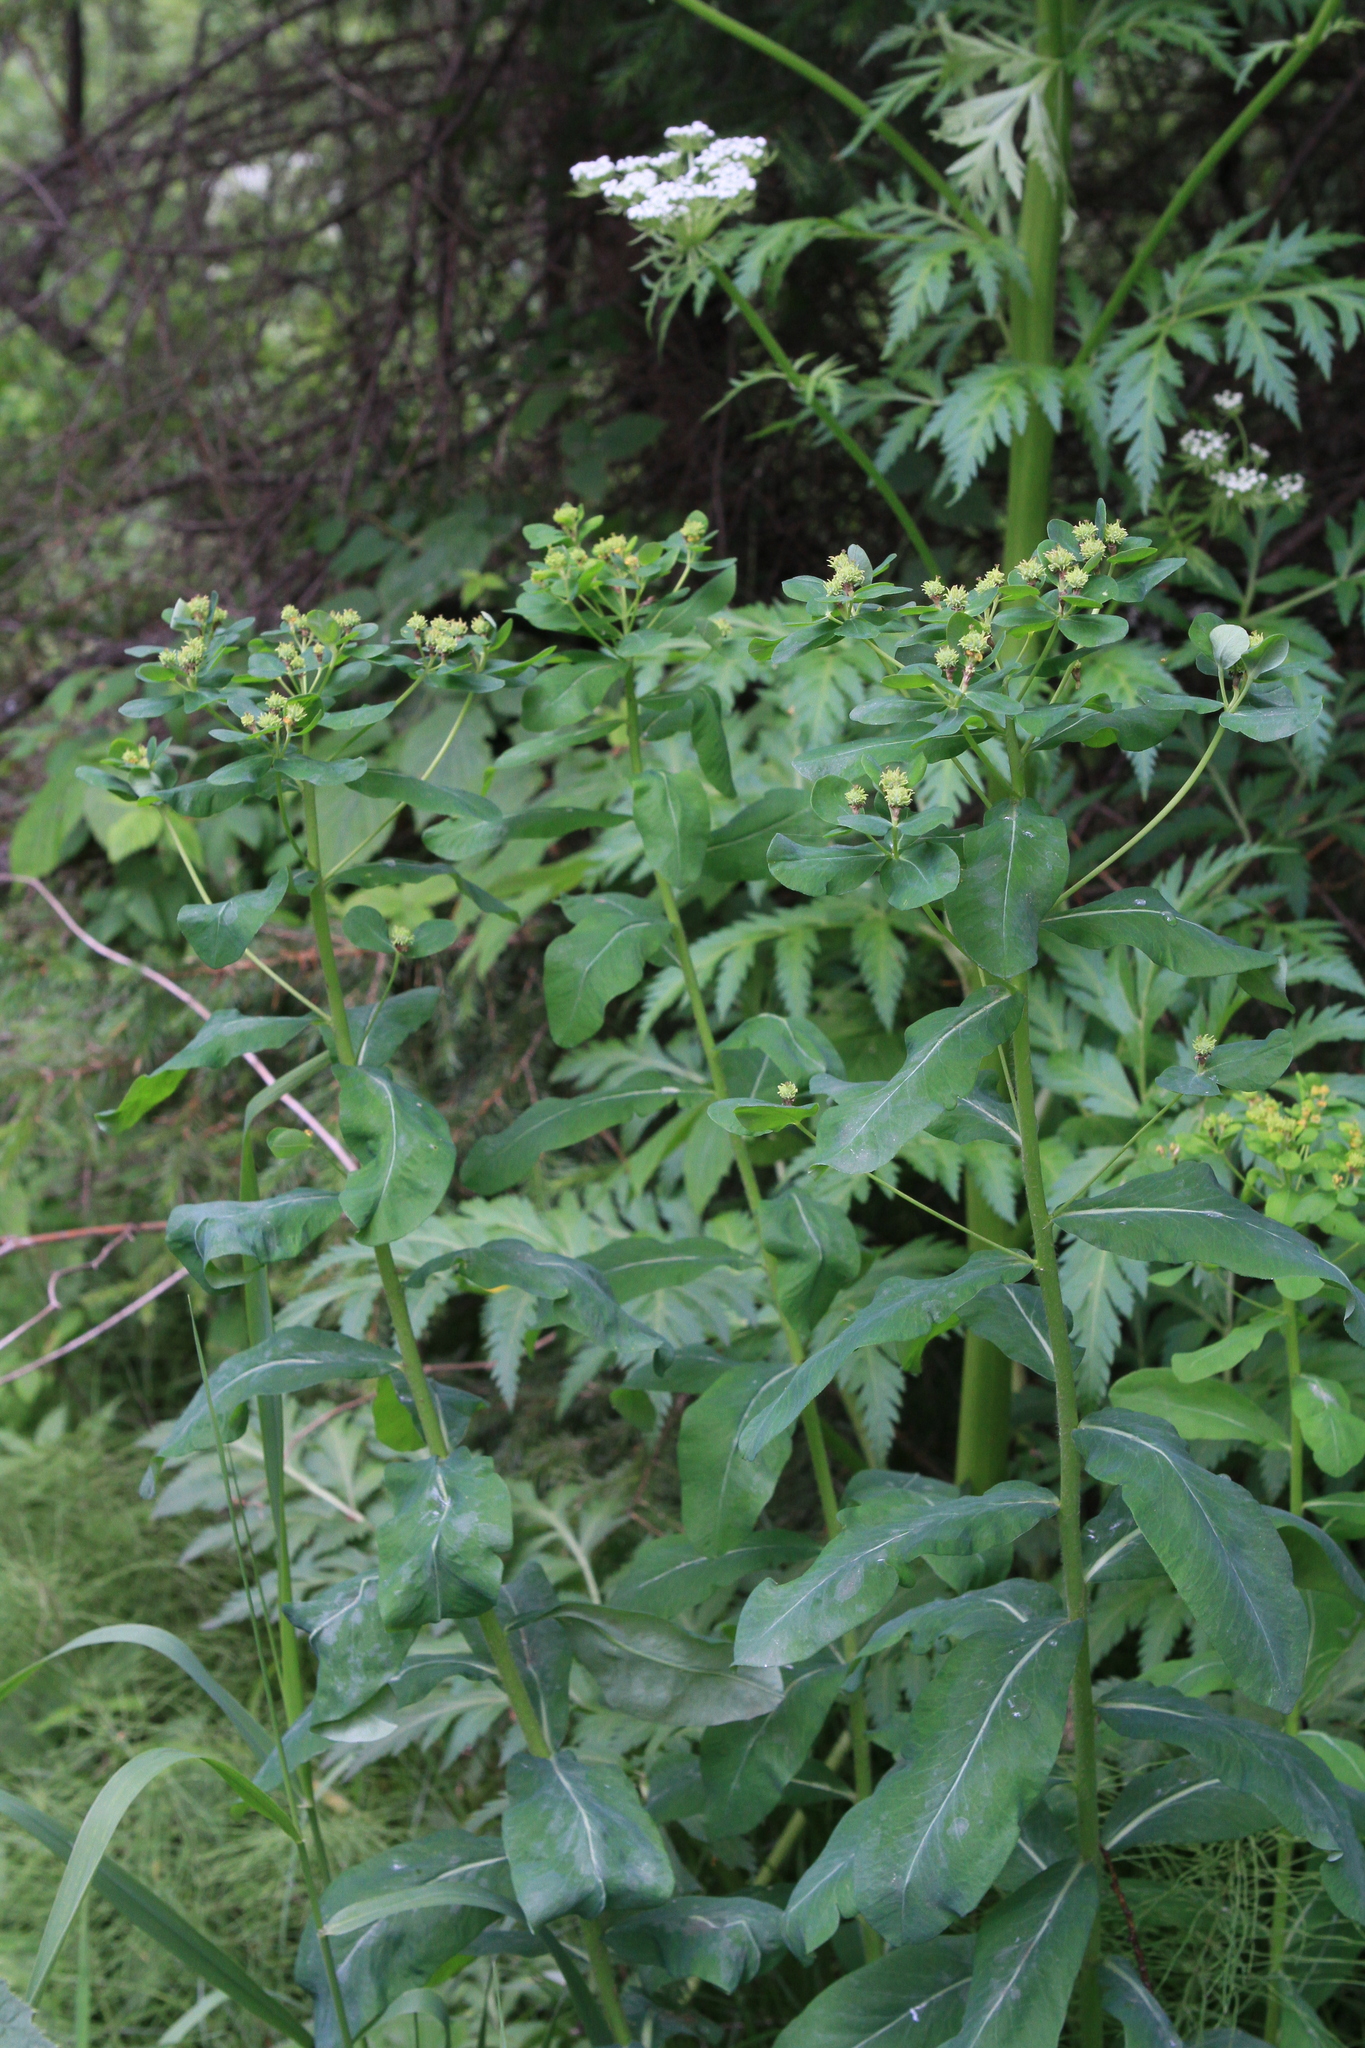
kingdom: Plantae
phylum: Tracheophyta
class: Magnoliopsida
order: Malpighiales
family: Euphorbiaceae
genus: Euphorbia
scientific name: Euphorbia pilosa
